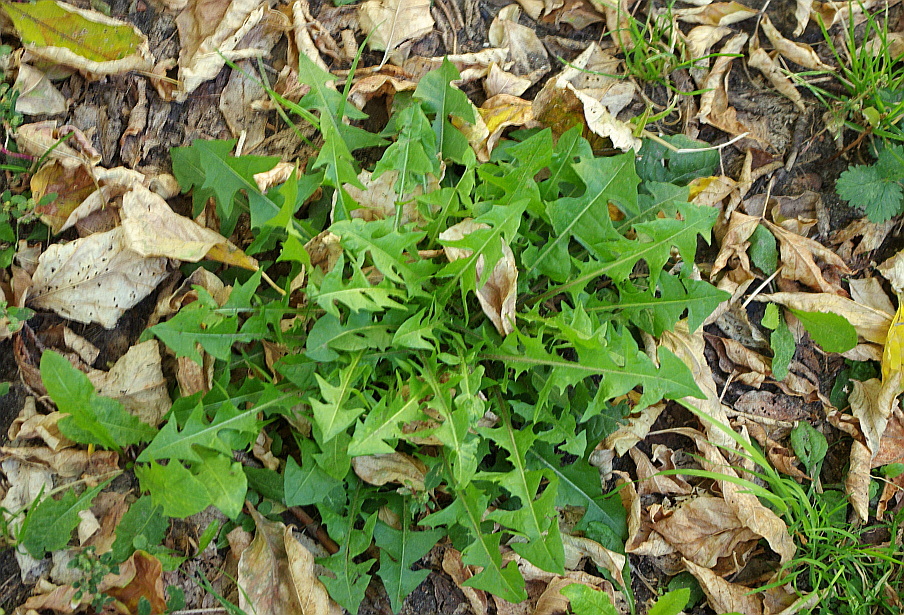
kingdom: Plantae
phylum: Tracheophyta
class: Magnoliopsida
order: Asterales
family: Asteraceae
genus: Taraxacum
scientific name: Taraxacum officinale
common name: Common dandelion
